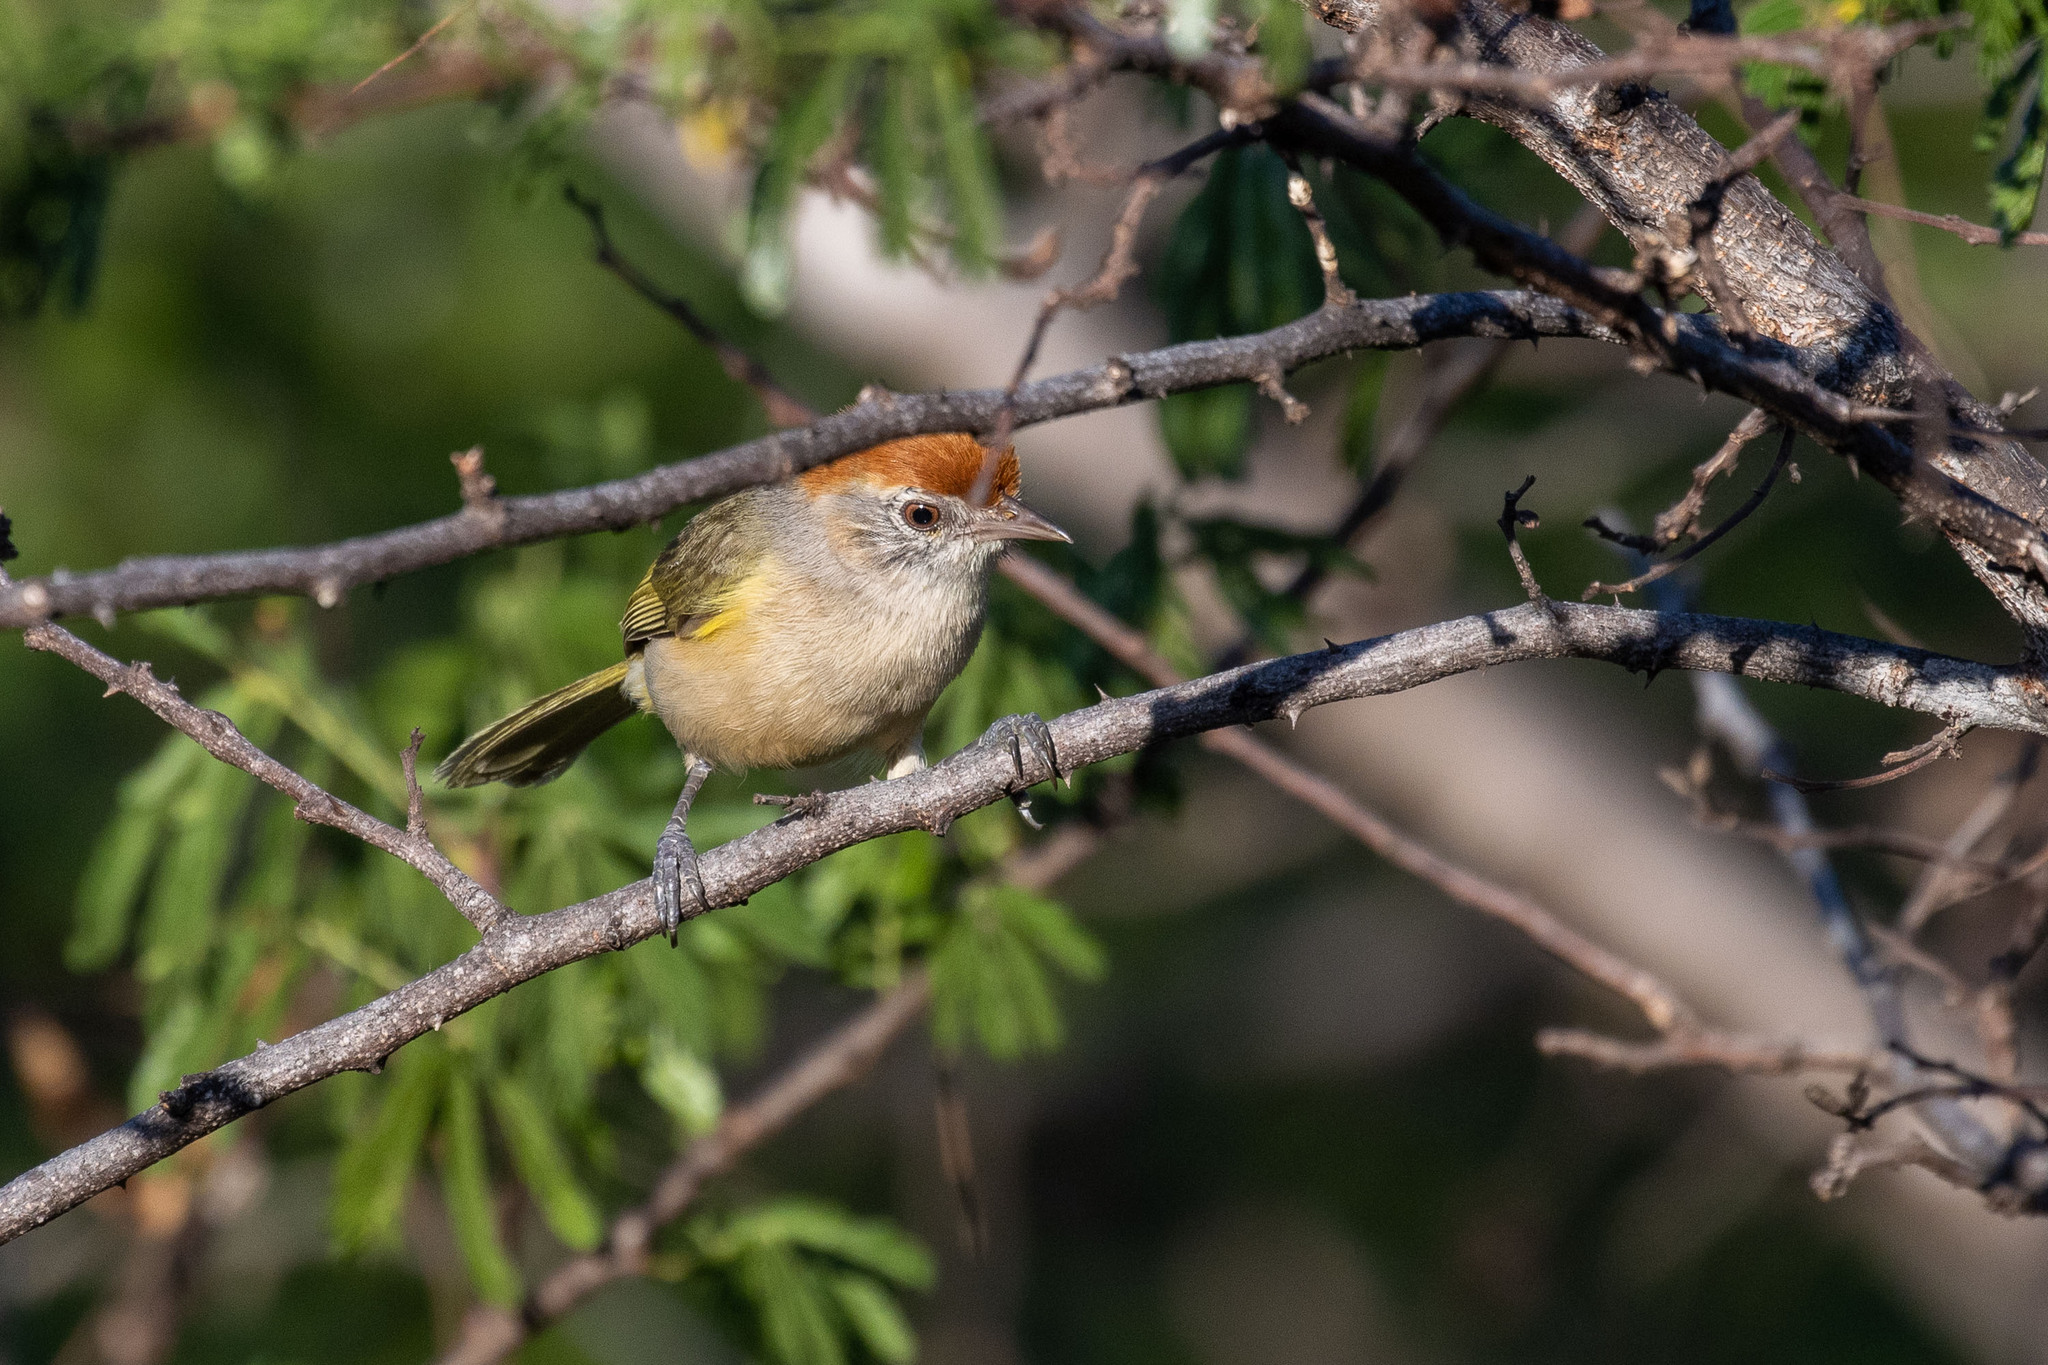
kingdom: Animalia
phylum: Chordata
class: Aves
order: Passeriformes
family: Vireonidae
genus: Hylophilus
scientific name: Hylophilus amaurocephalus
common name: Grey-eyed greenlet
